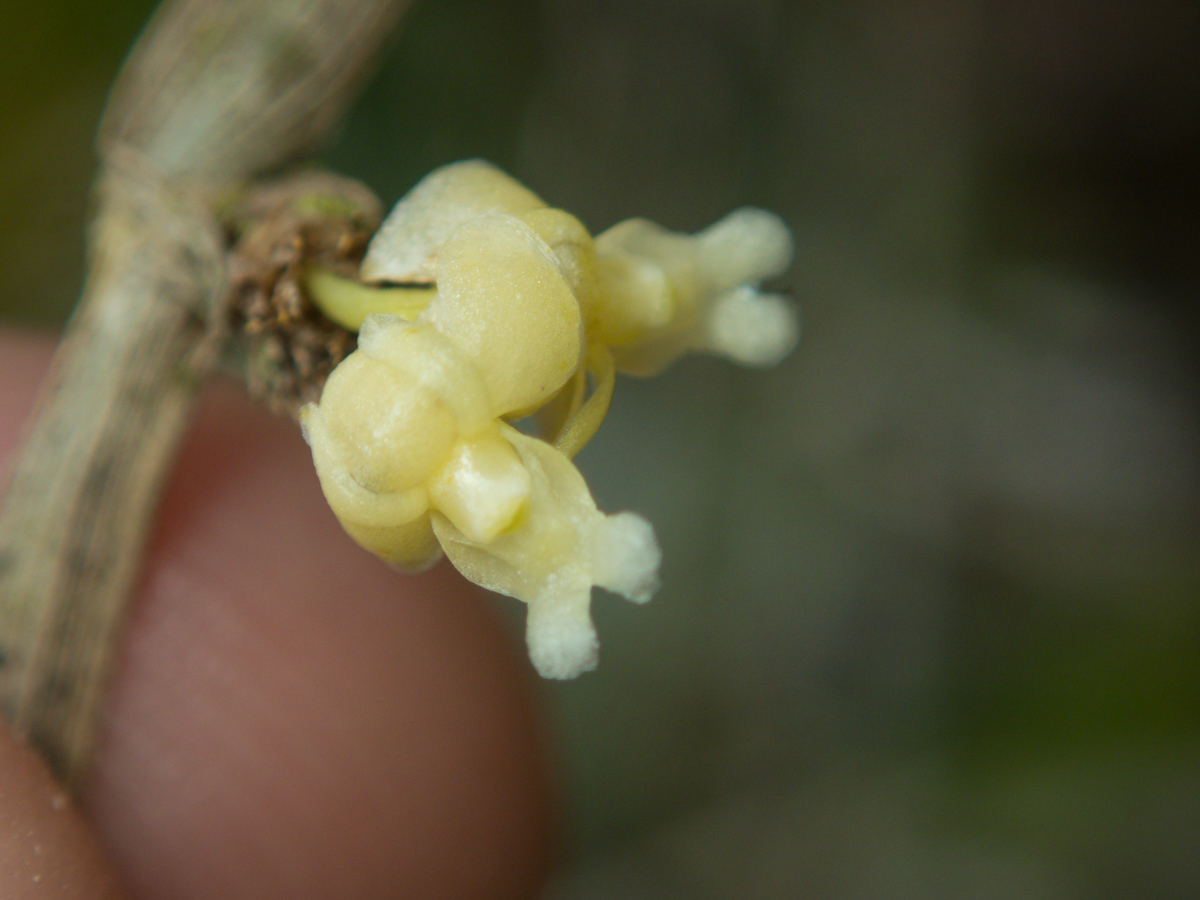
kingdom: Plantae
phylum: Tracheophyta
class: Liliopsida
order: Asparagales
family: Orchidaceae
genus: Dendrobium
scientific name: Dendrobium aloifolium
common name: Aloe-like dendrobium
